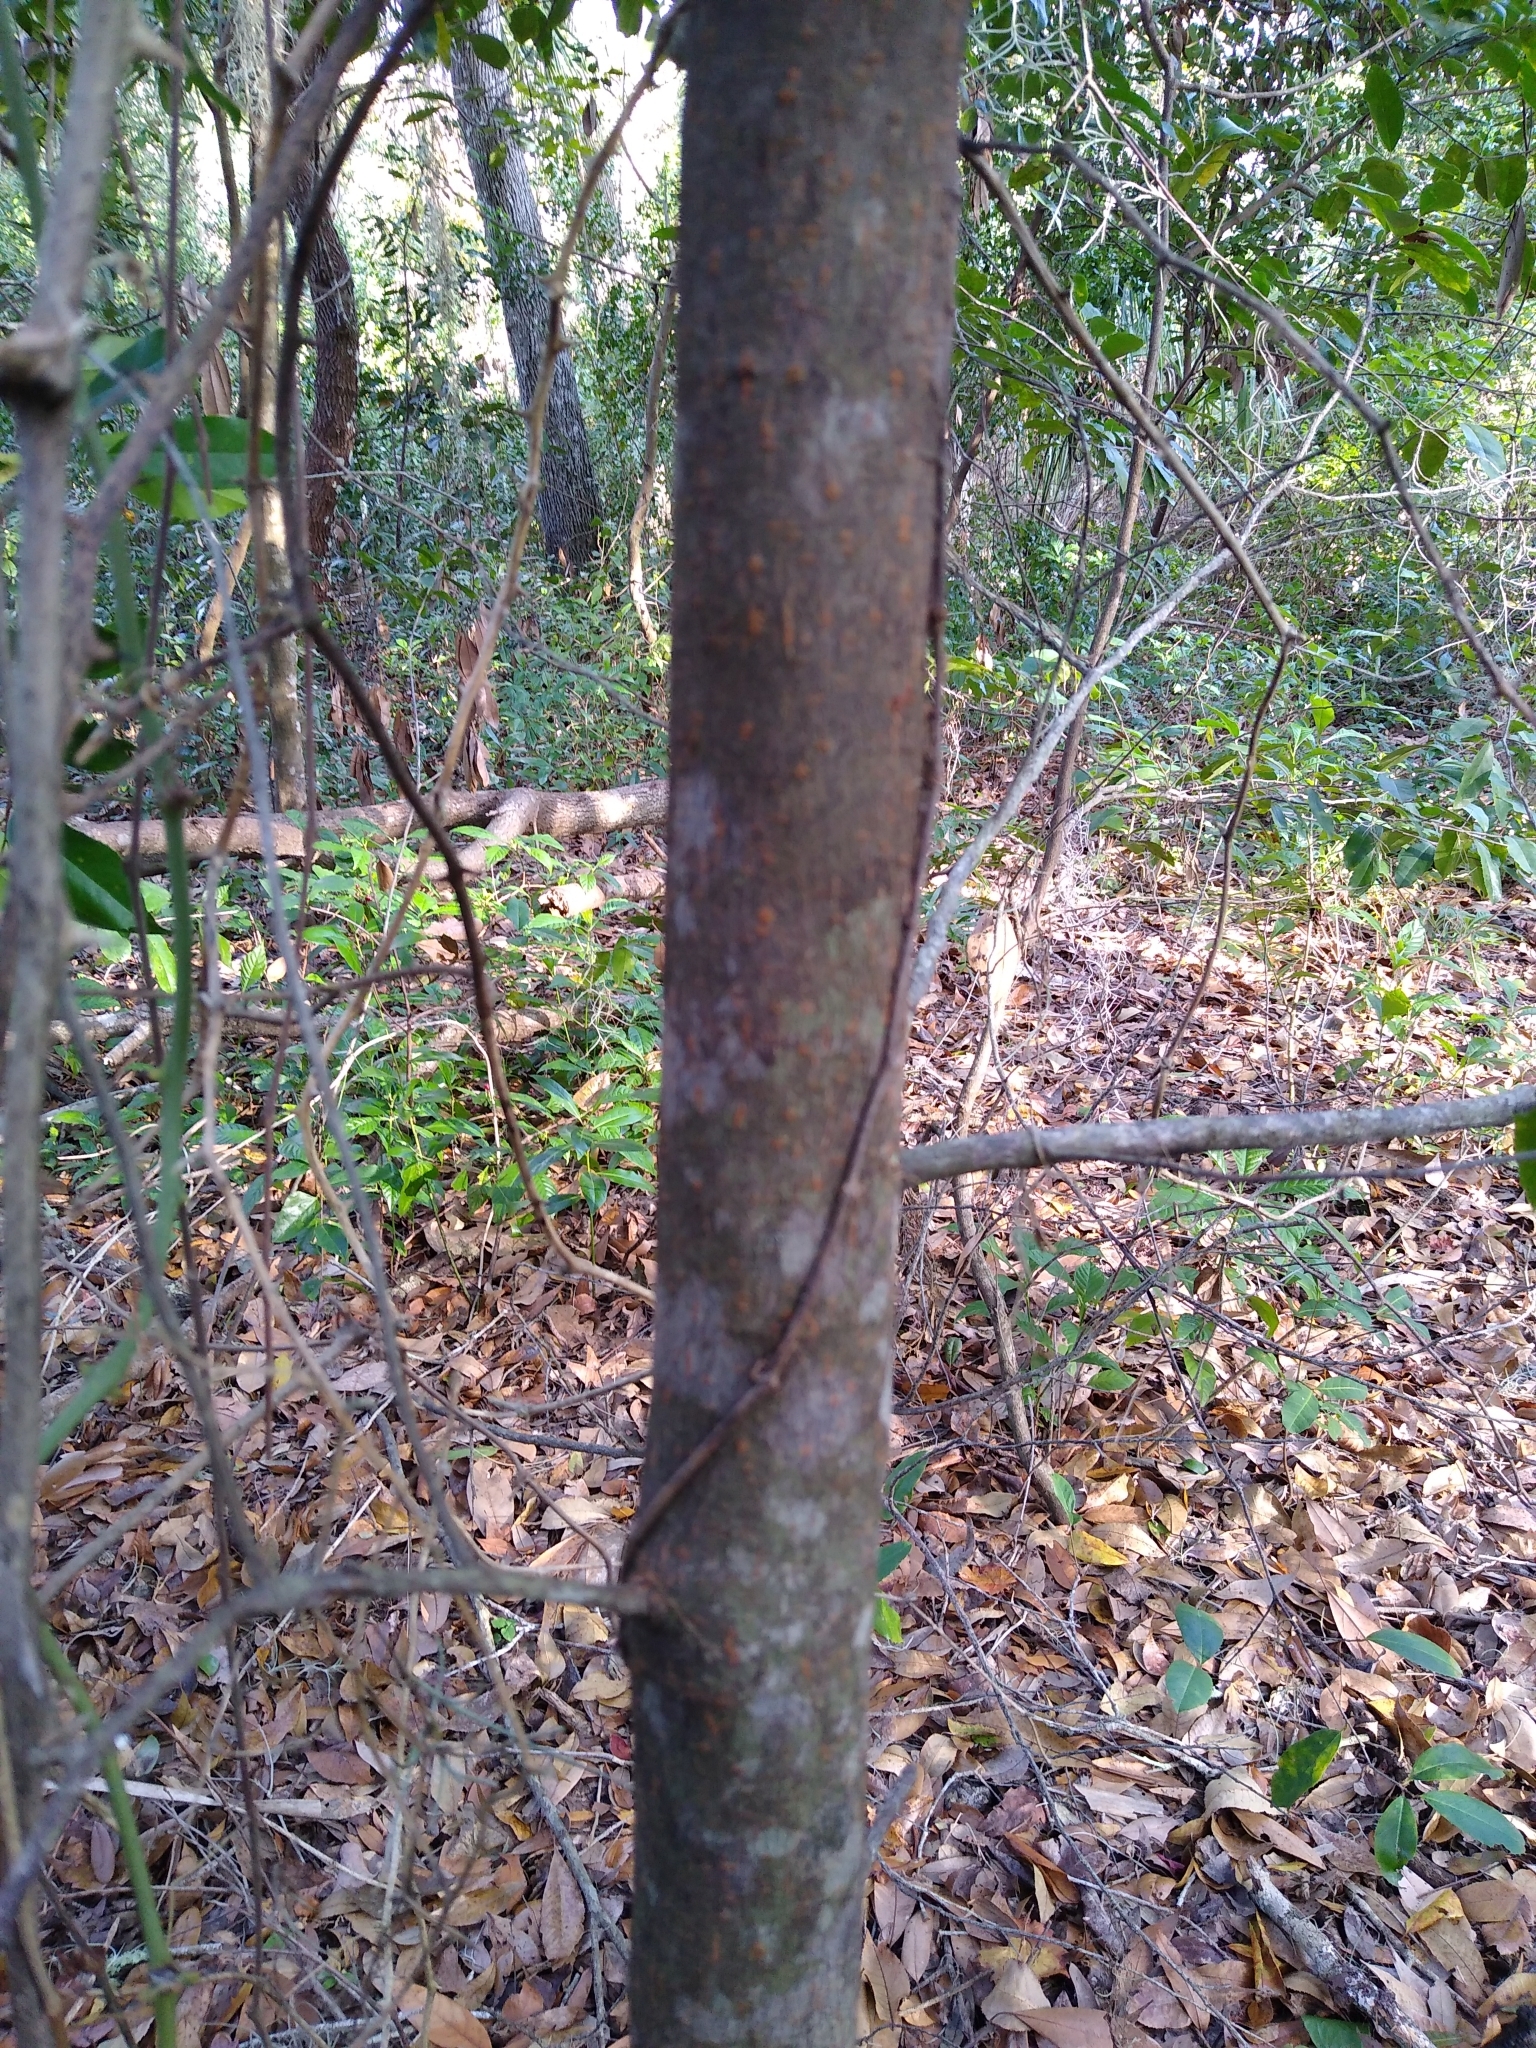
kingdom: Plantae
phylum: Tracheophyta
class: Magnoliopsida
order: Rosales
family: Rosaceae
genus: Prunus
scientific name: Prunus caroliniana
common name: Carolina laurel cherry
